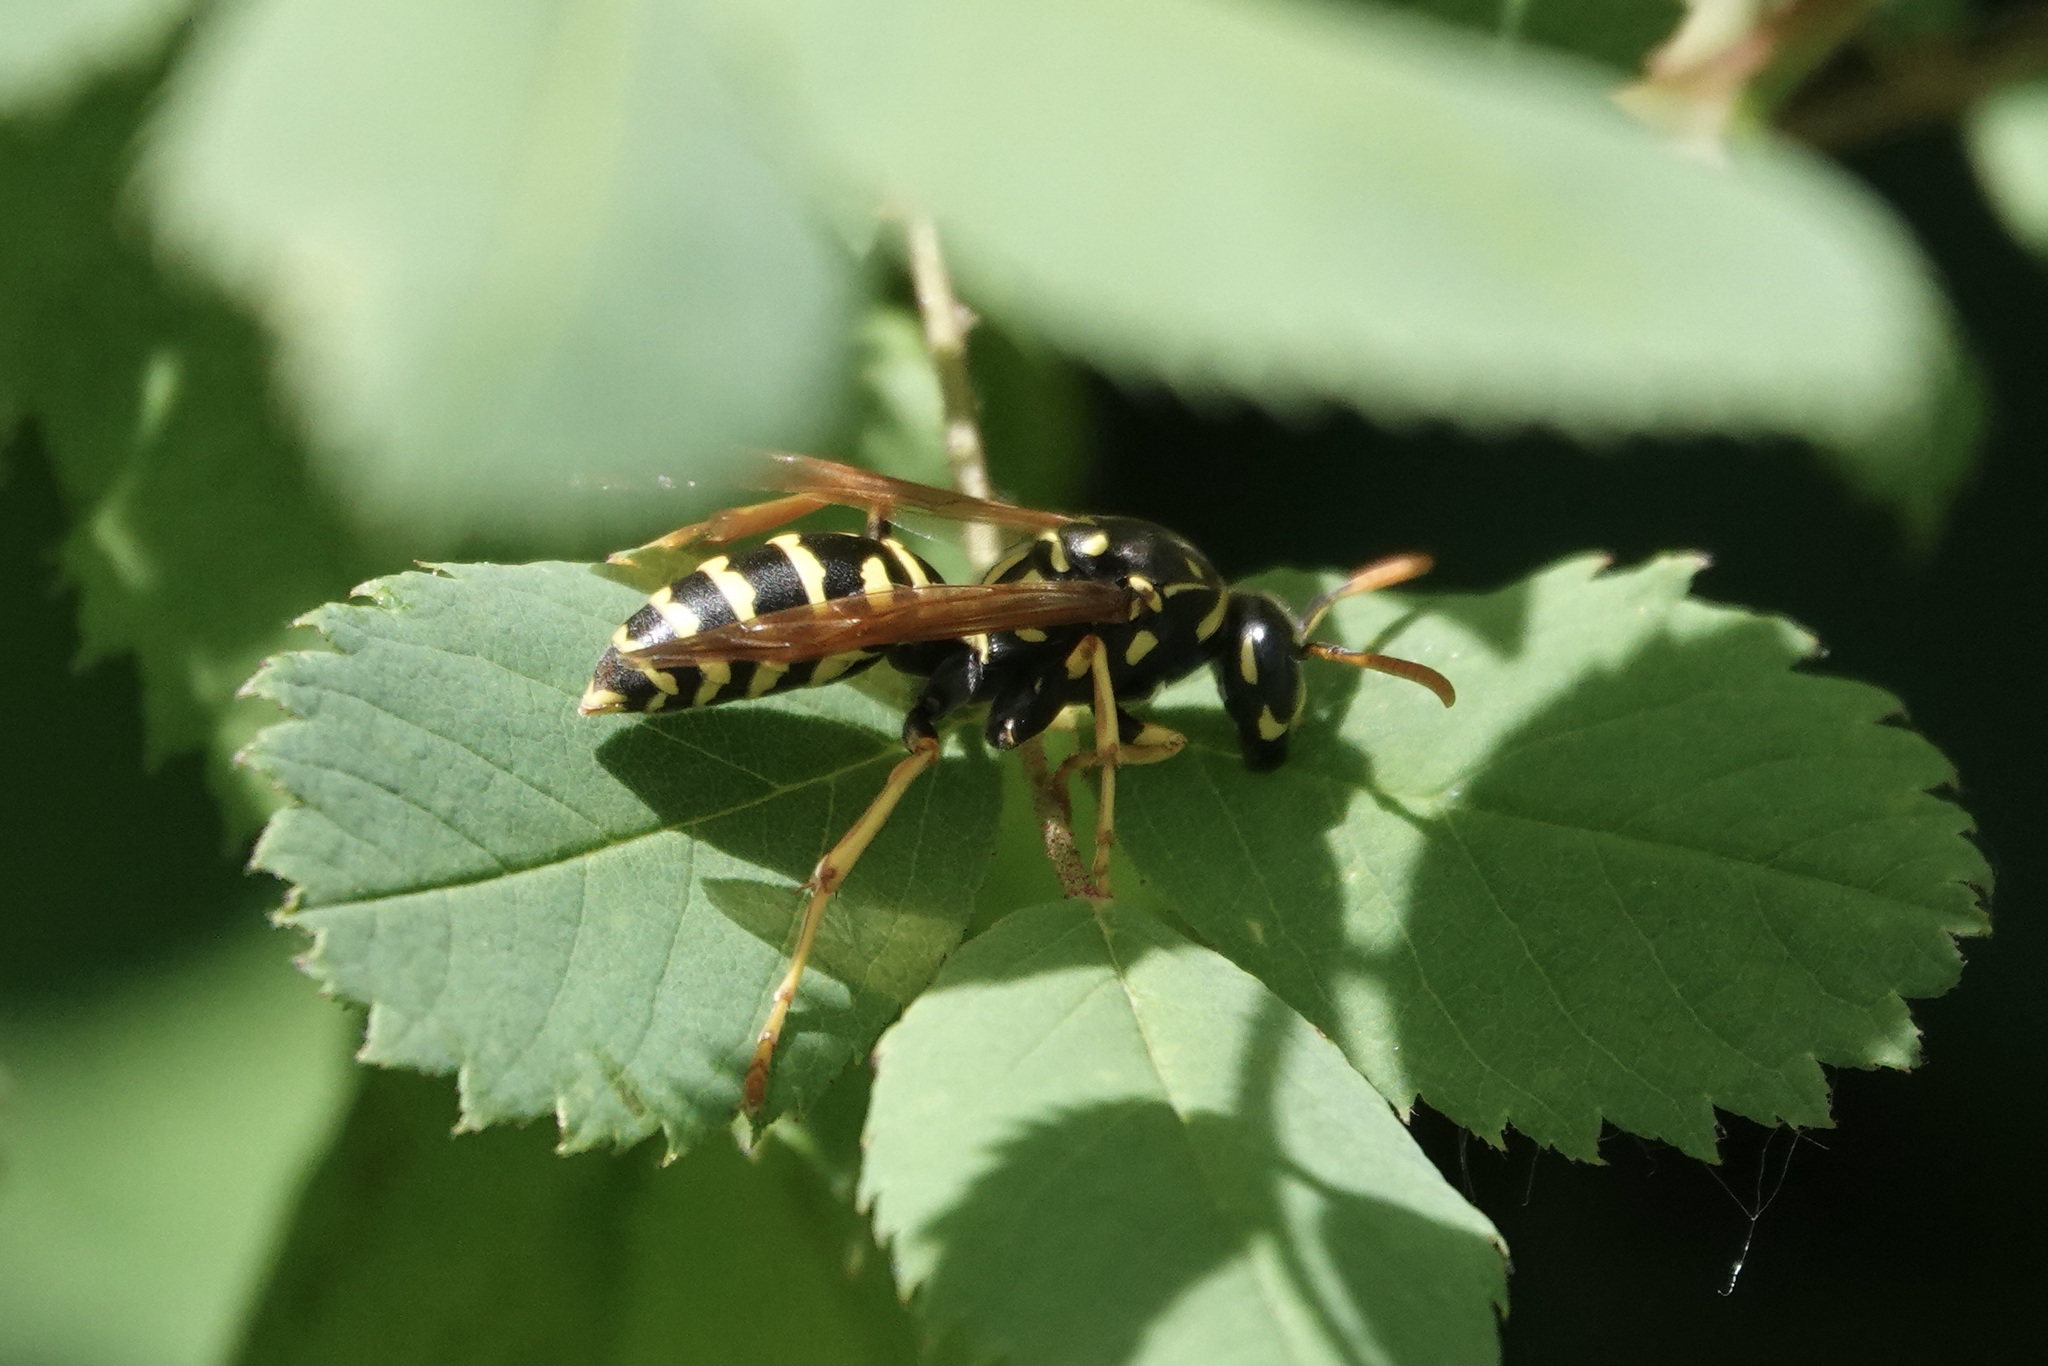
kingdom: Animalia
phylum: Arthropoda
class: Insecta
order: Hymenoptera
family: Eumenidae
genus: Polistes
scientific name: Polistes dominula
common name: Paper wasp
